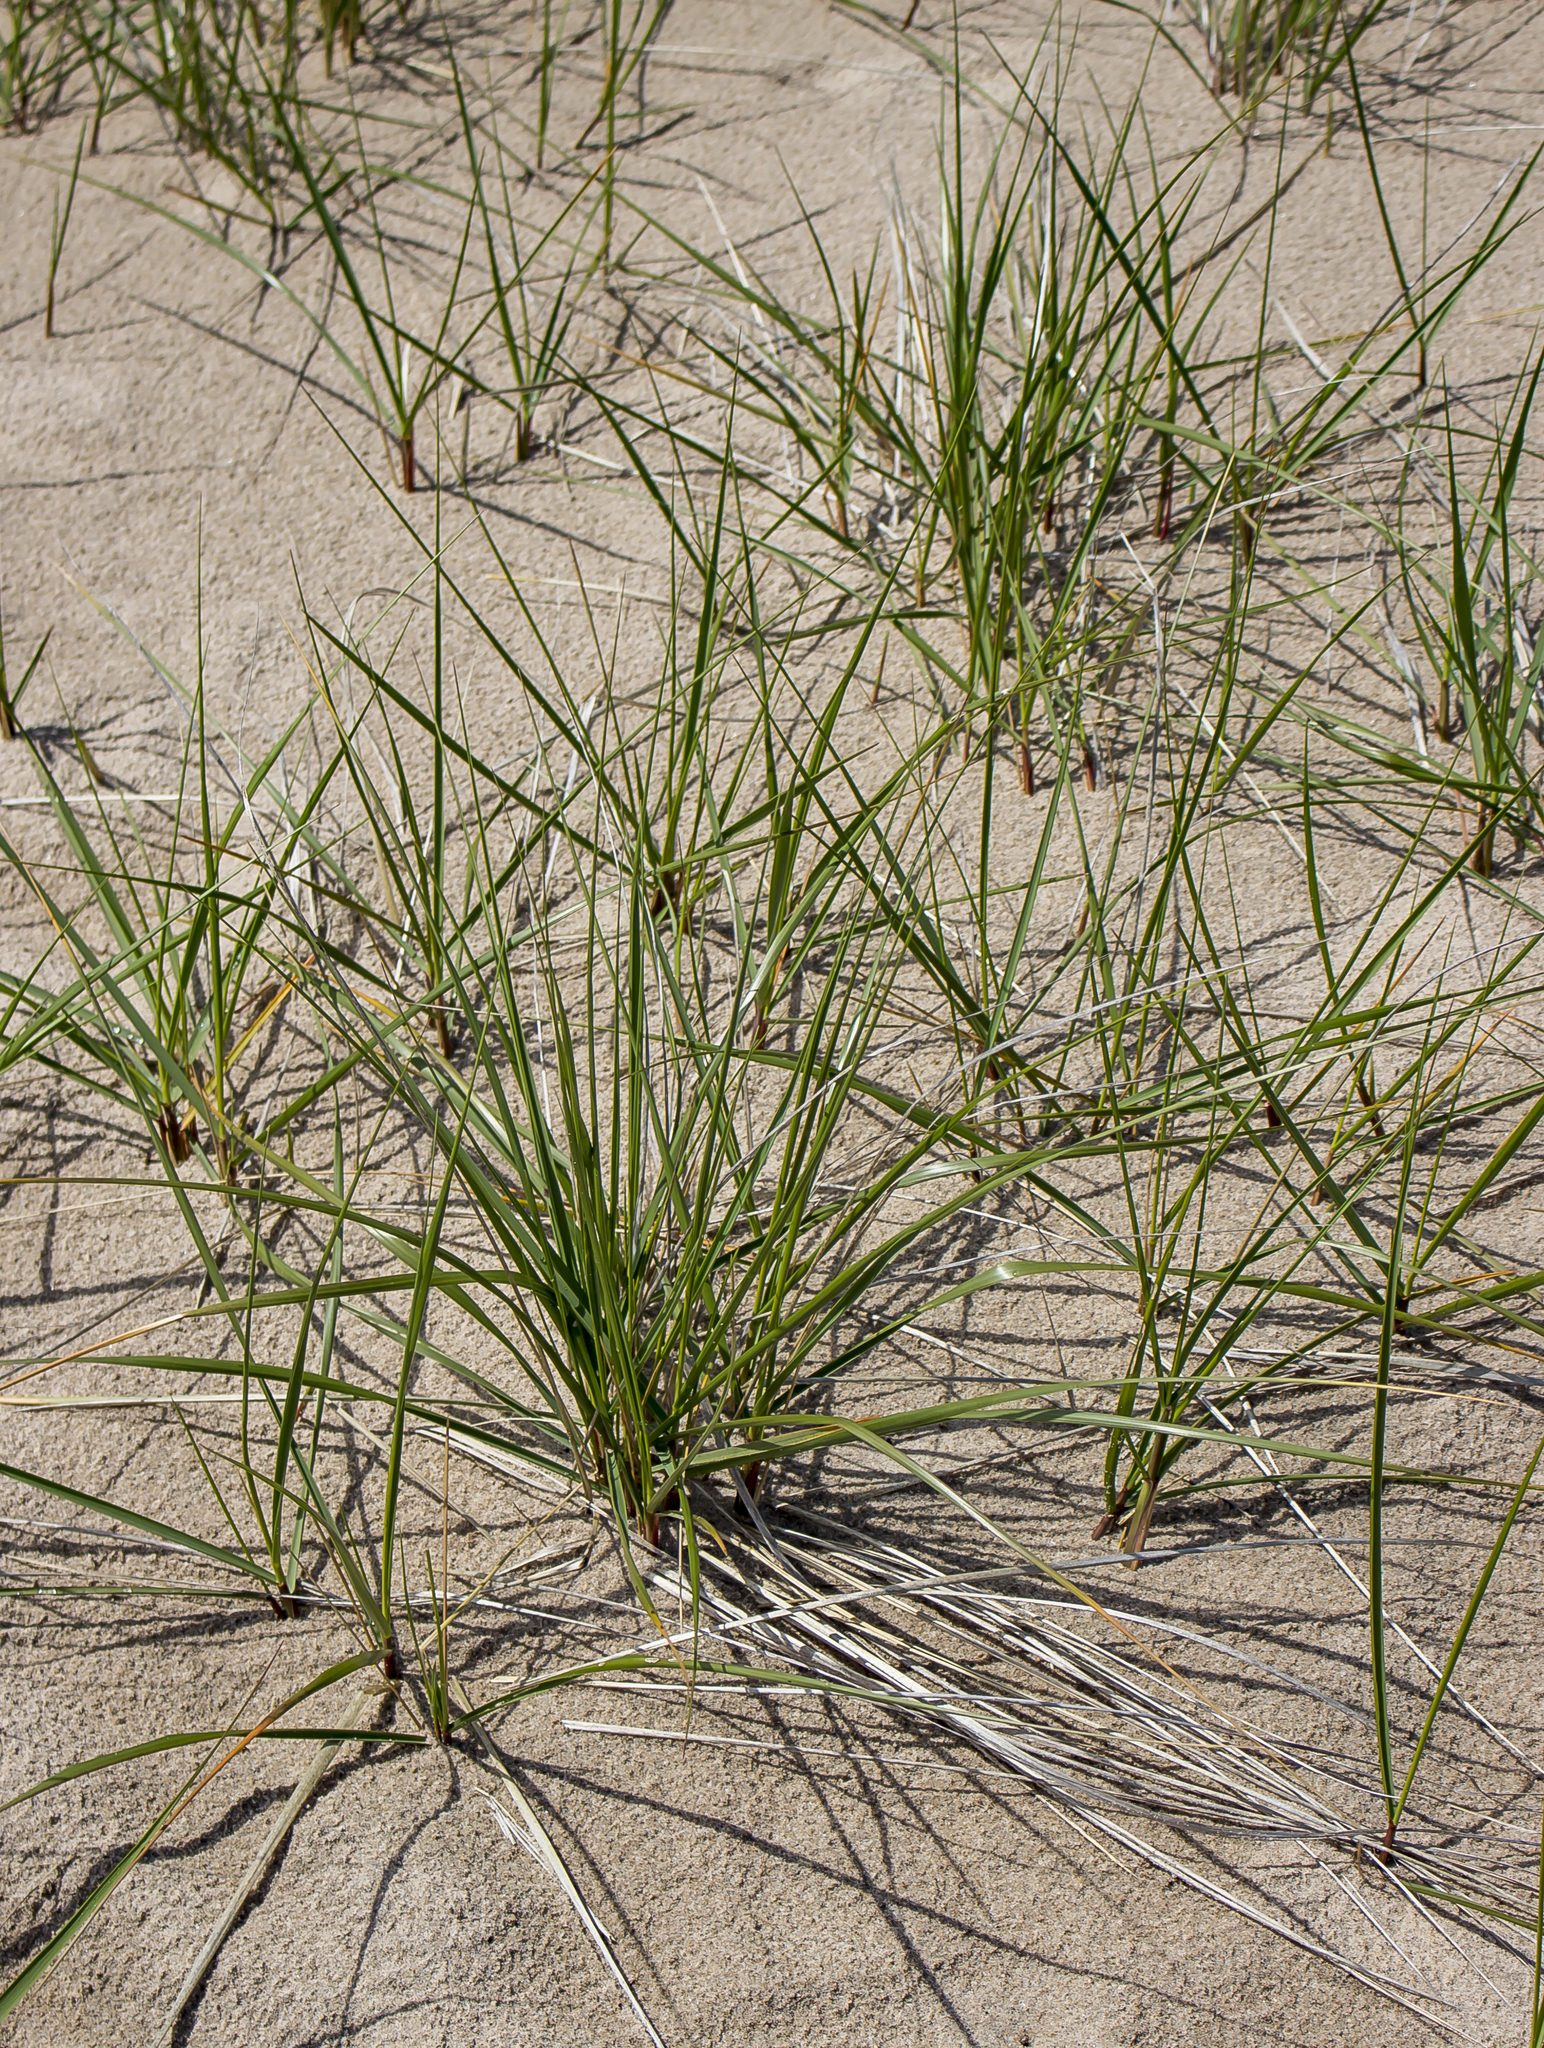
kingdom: Plantae
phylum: Tracheophyta
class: Liliopsida
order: Poales
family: Poaceae
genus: Calamagrostis
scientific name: Calamagrostis breviligulata
